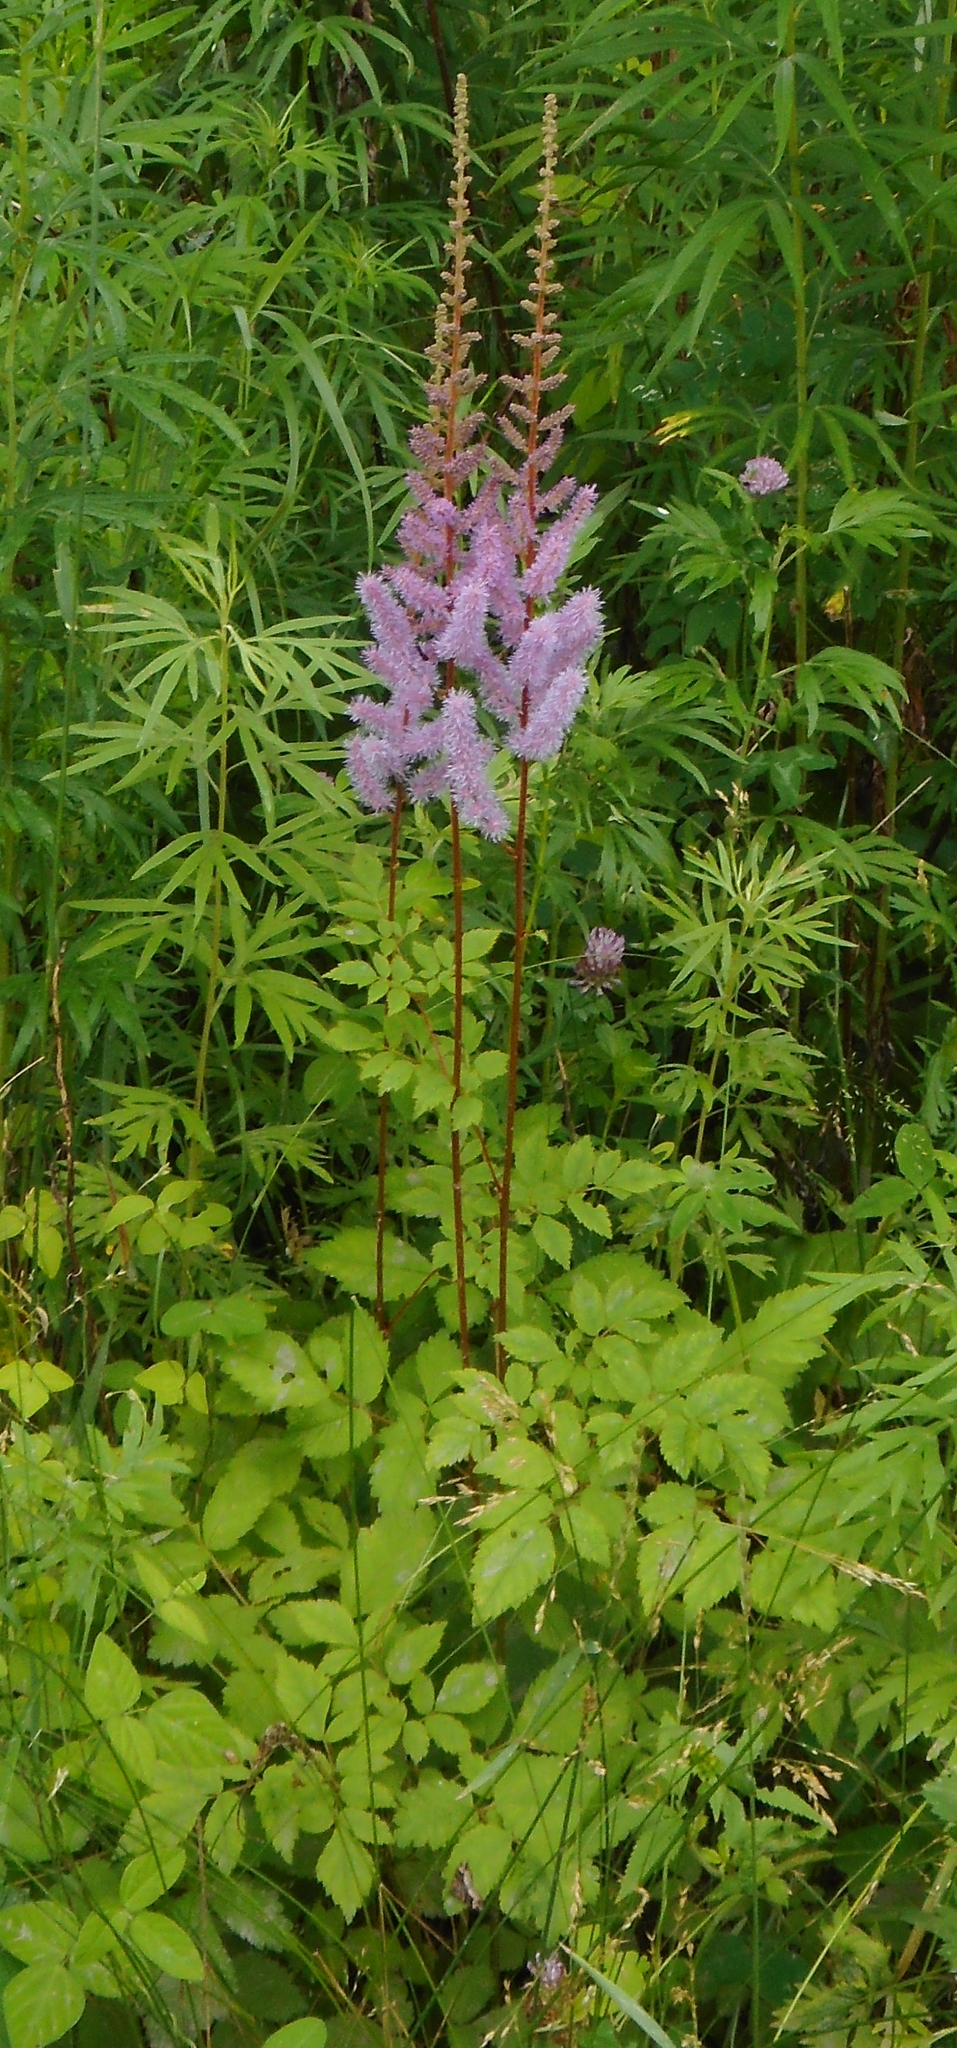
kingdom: Plantae
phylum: Tracheophyta
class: Magnoliopsida
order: Saxifragales
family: Saxifragaceae
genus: Astilbe
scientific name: Astilbe rubra
